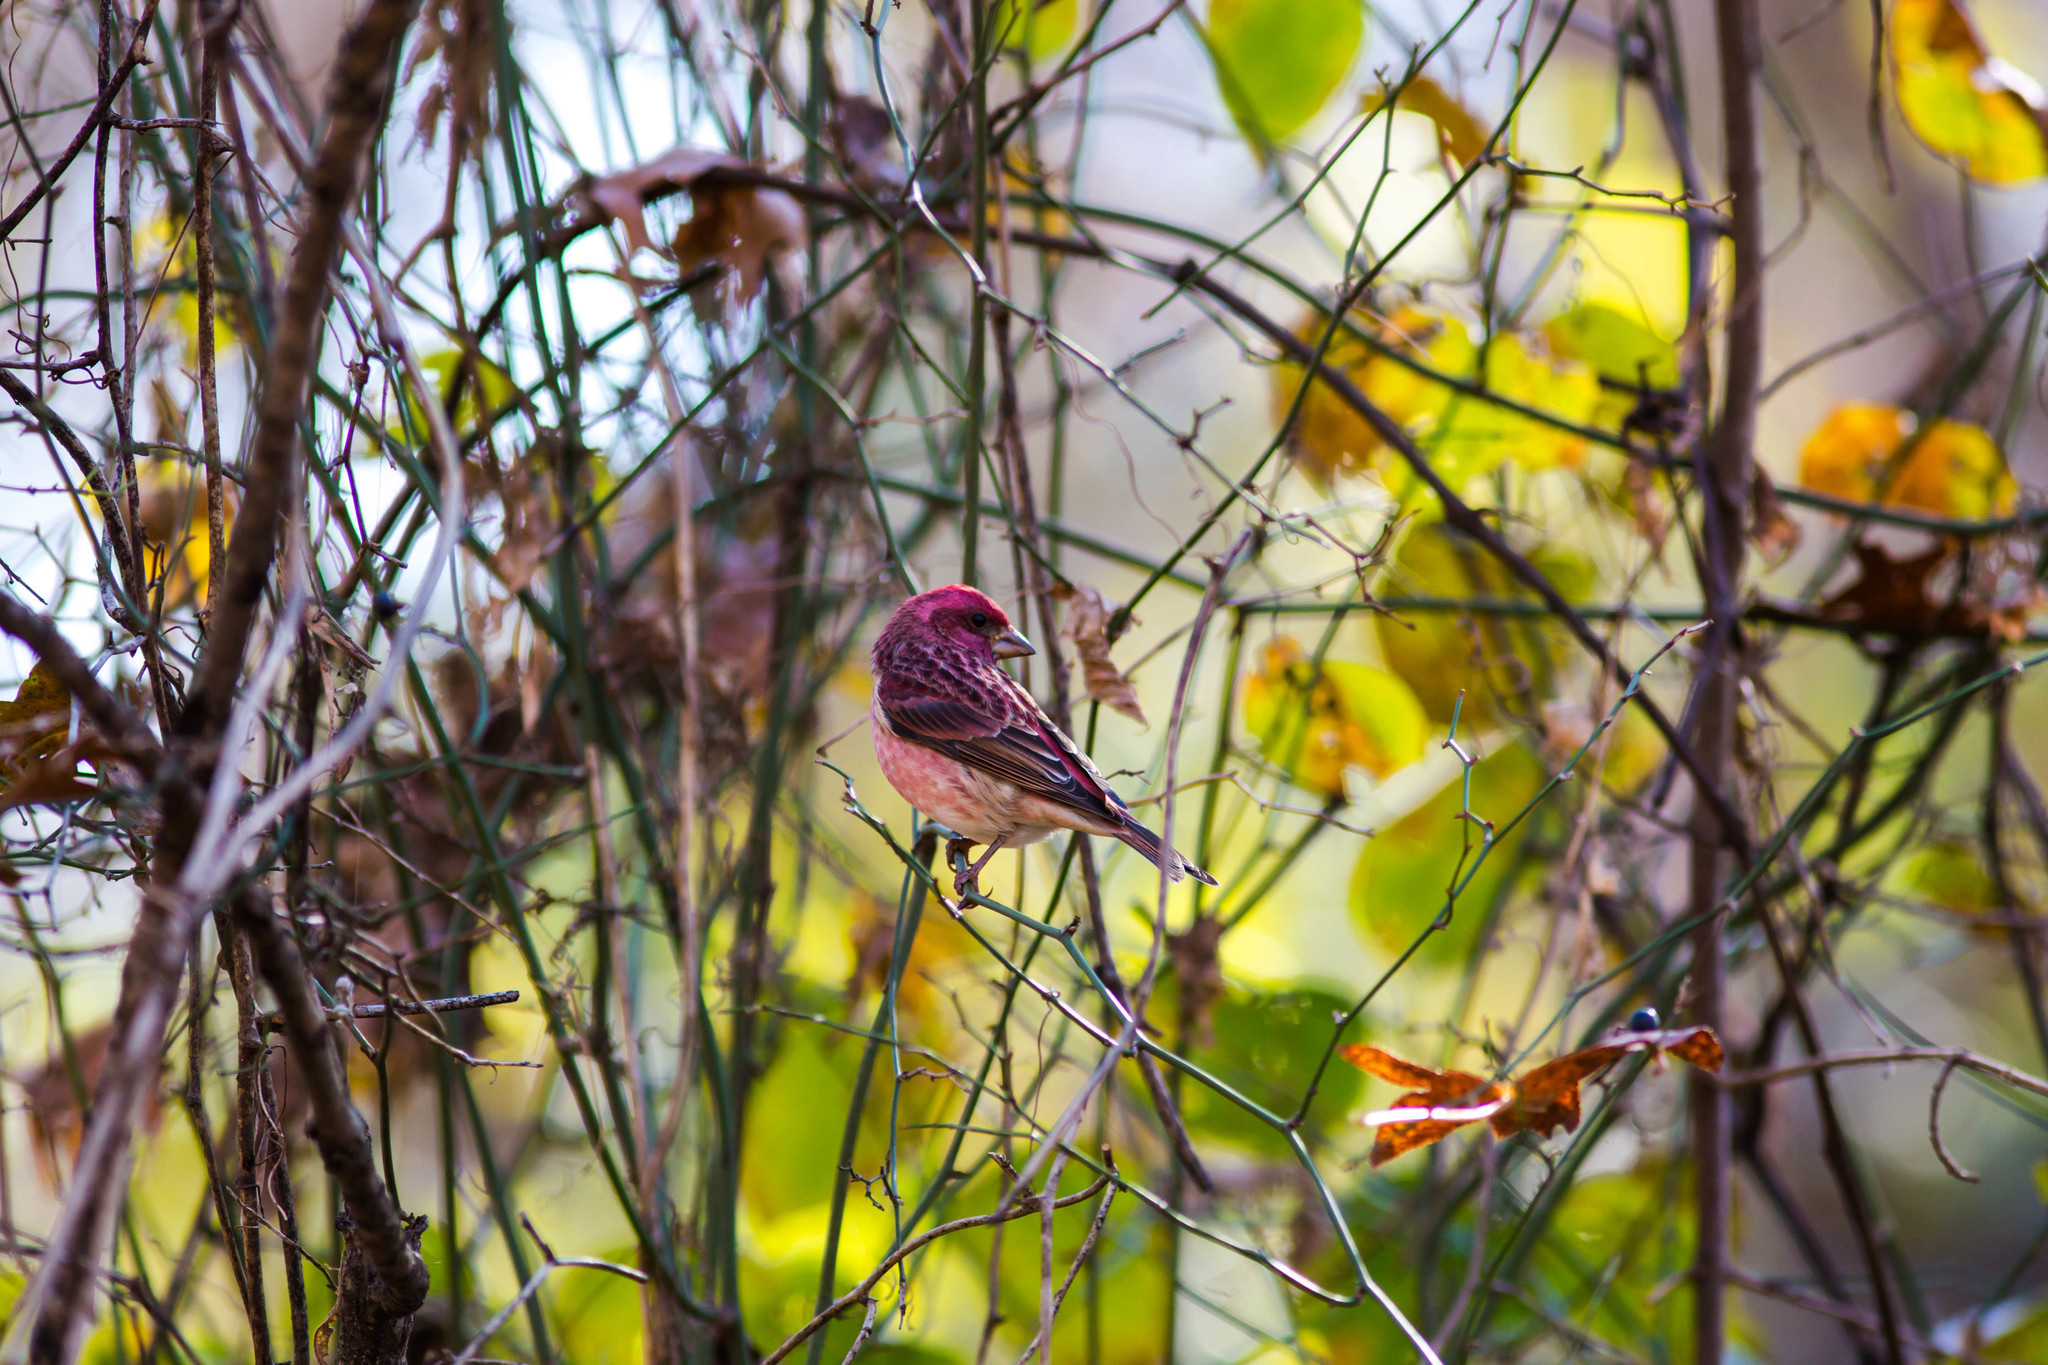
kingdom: Animalia
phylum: Chordata
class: Aves
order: Passeriformes
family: Fringillidae
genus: Haemorhous
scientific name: Haemorhous purpureus
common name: Purple finch
